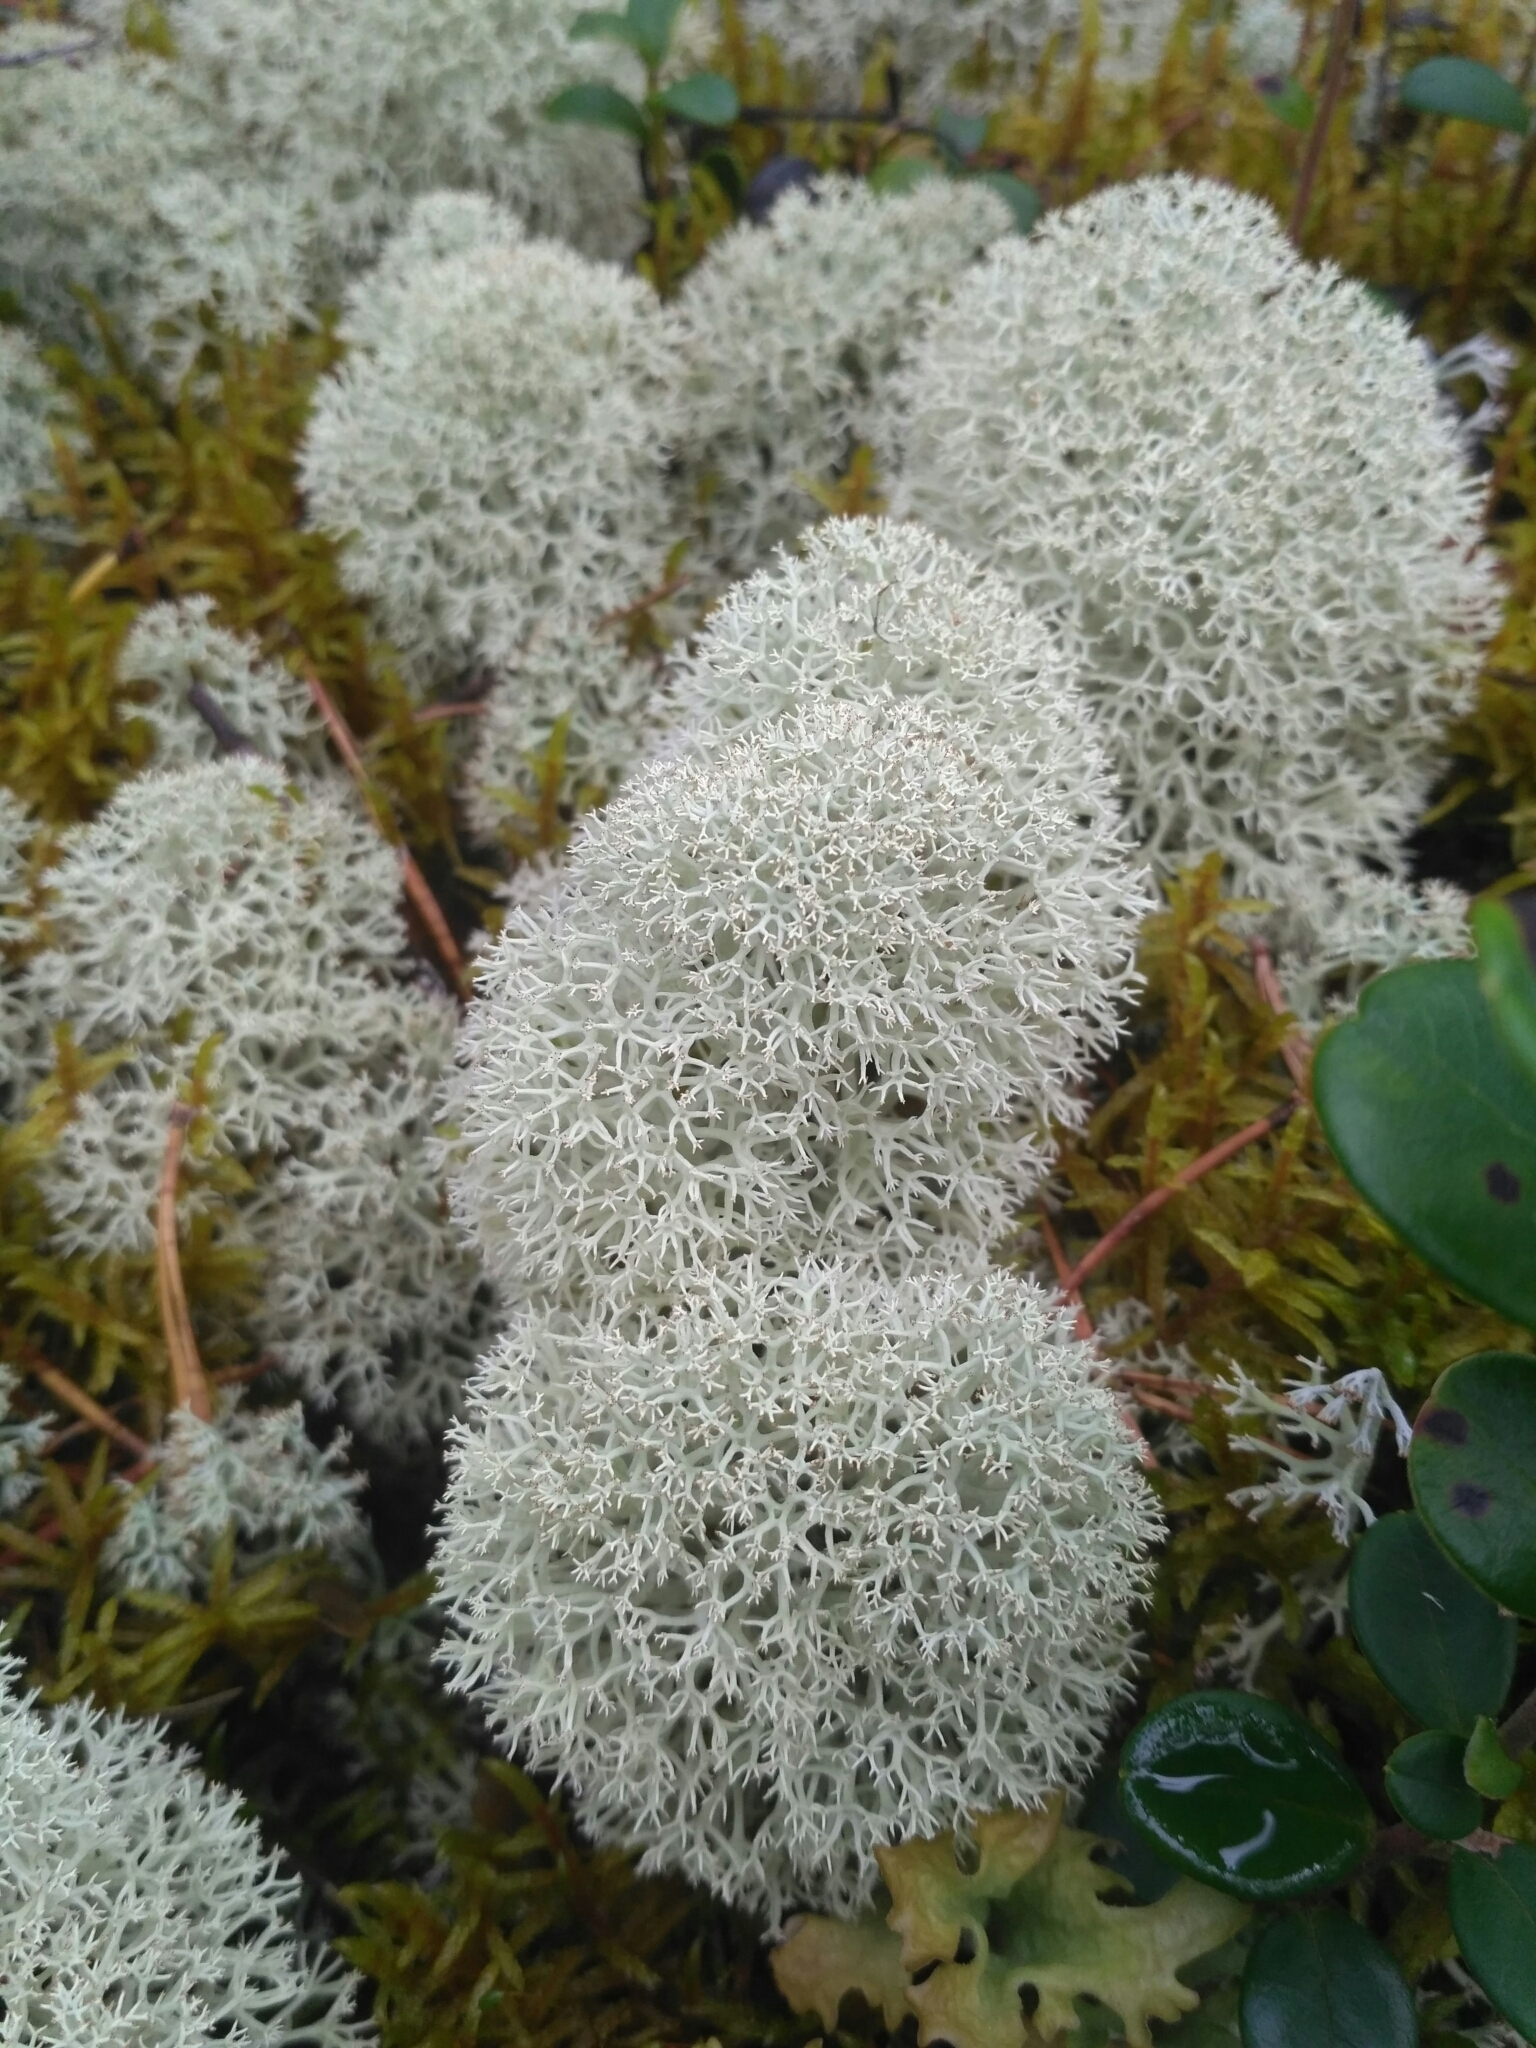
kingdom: Fungi
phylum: Ascomycota
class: Lecanoromycetes
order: Lecanorales
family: Cladoniaceae
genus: Cladonia
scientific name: Cladonia stellaris
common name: Star-tipped reindeer lichen
